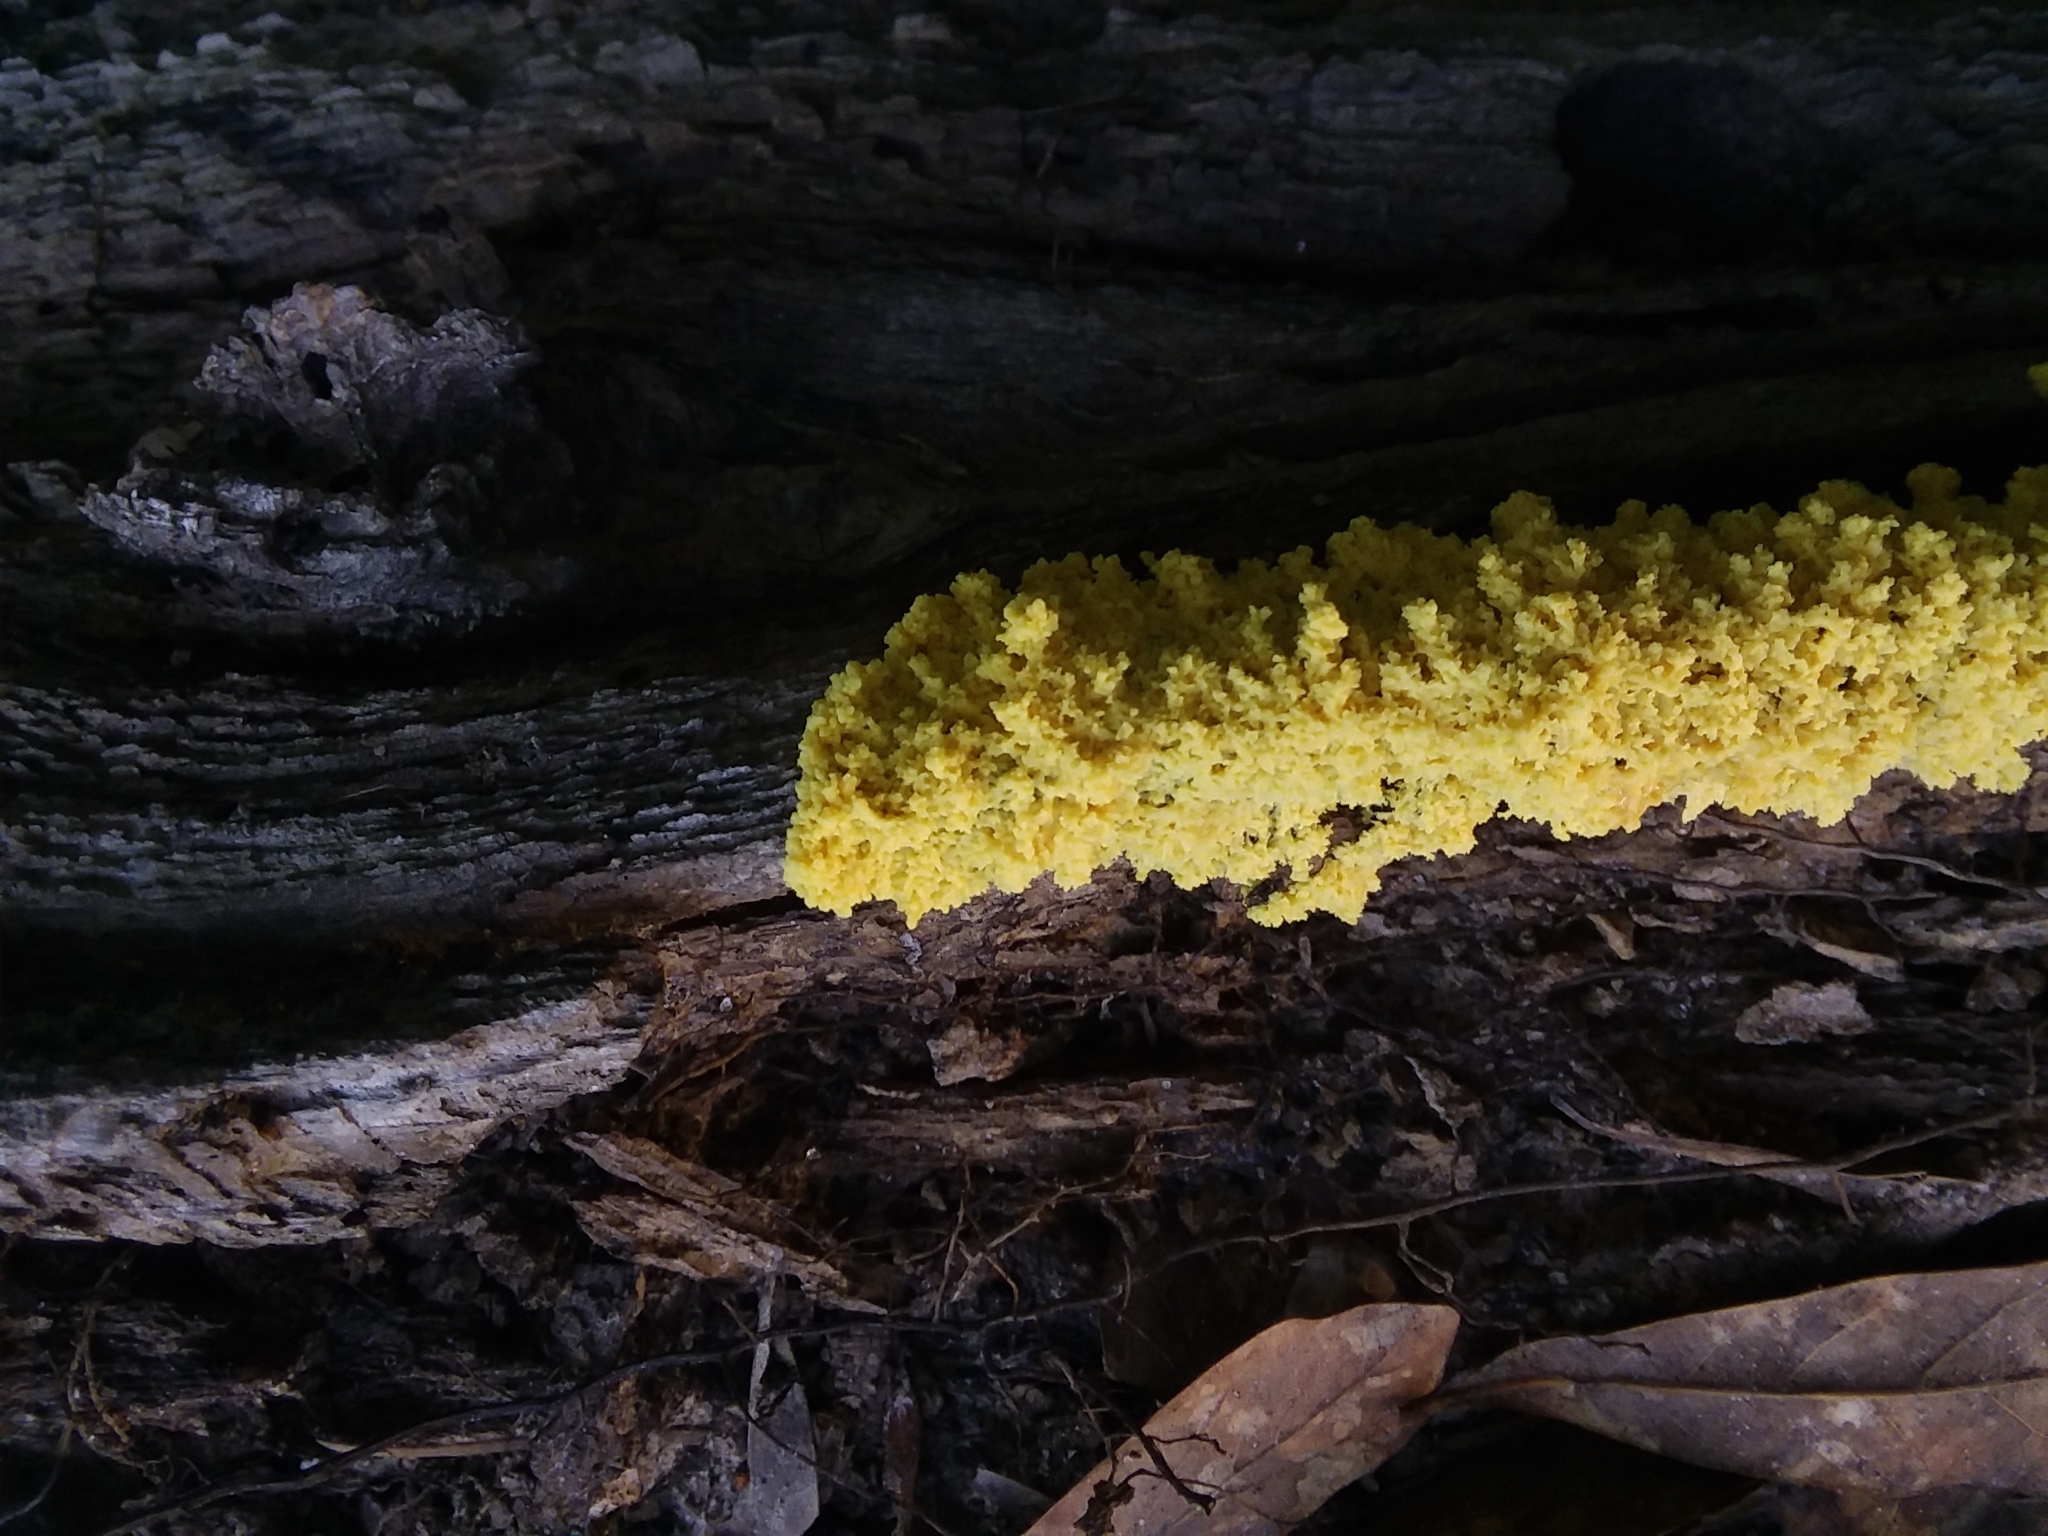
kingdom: Protozoa
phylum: Mycetozoa
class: Myxomycetes
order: Physarales
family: Physaraceae
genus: Fuligo
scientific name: Fuligo septica
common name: Dog vomit slime mold
